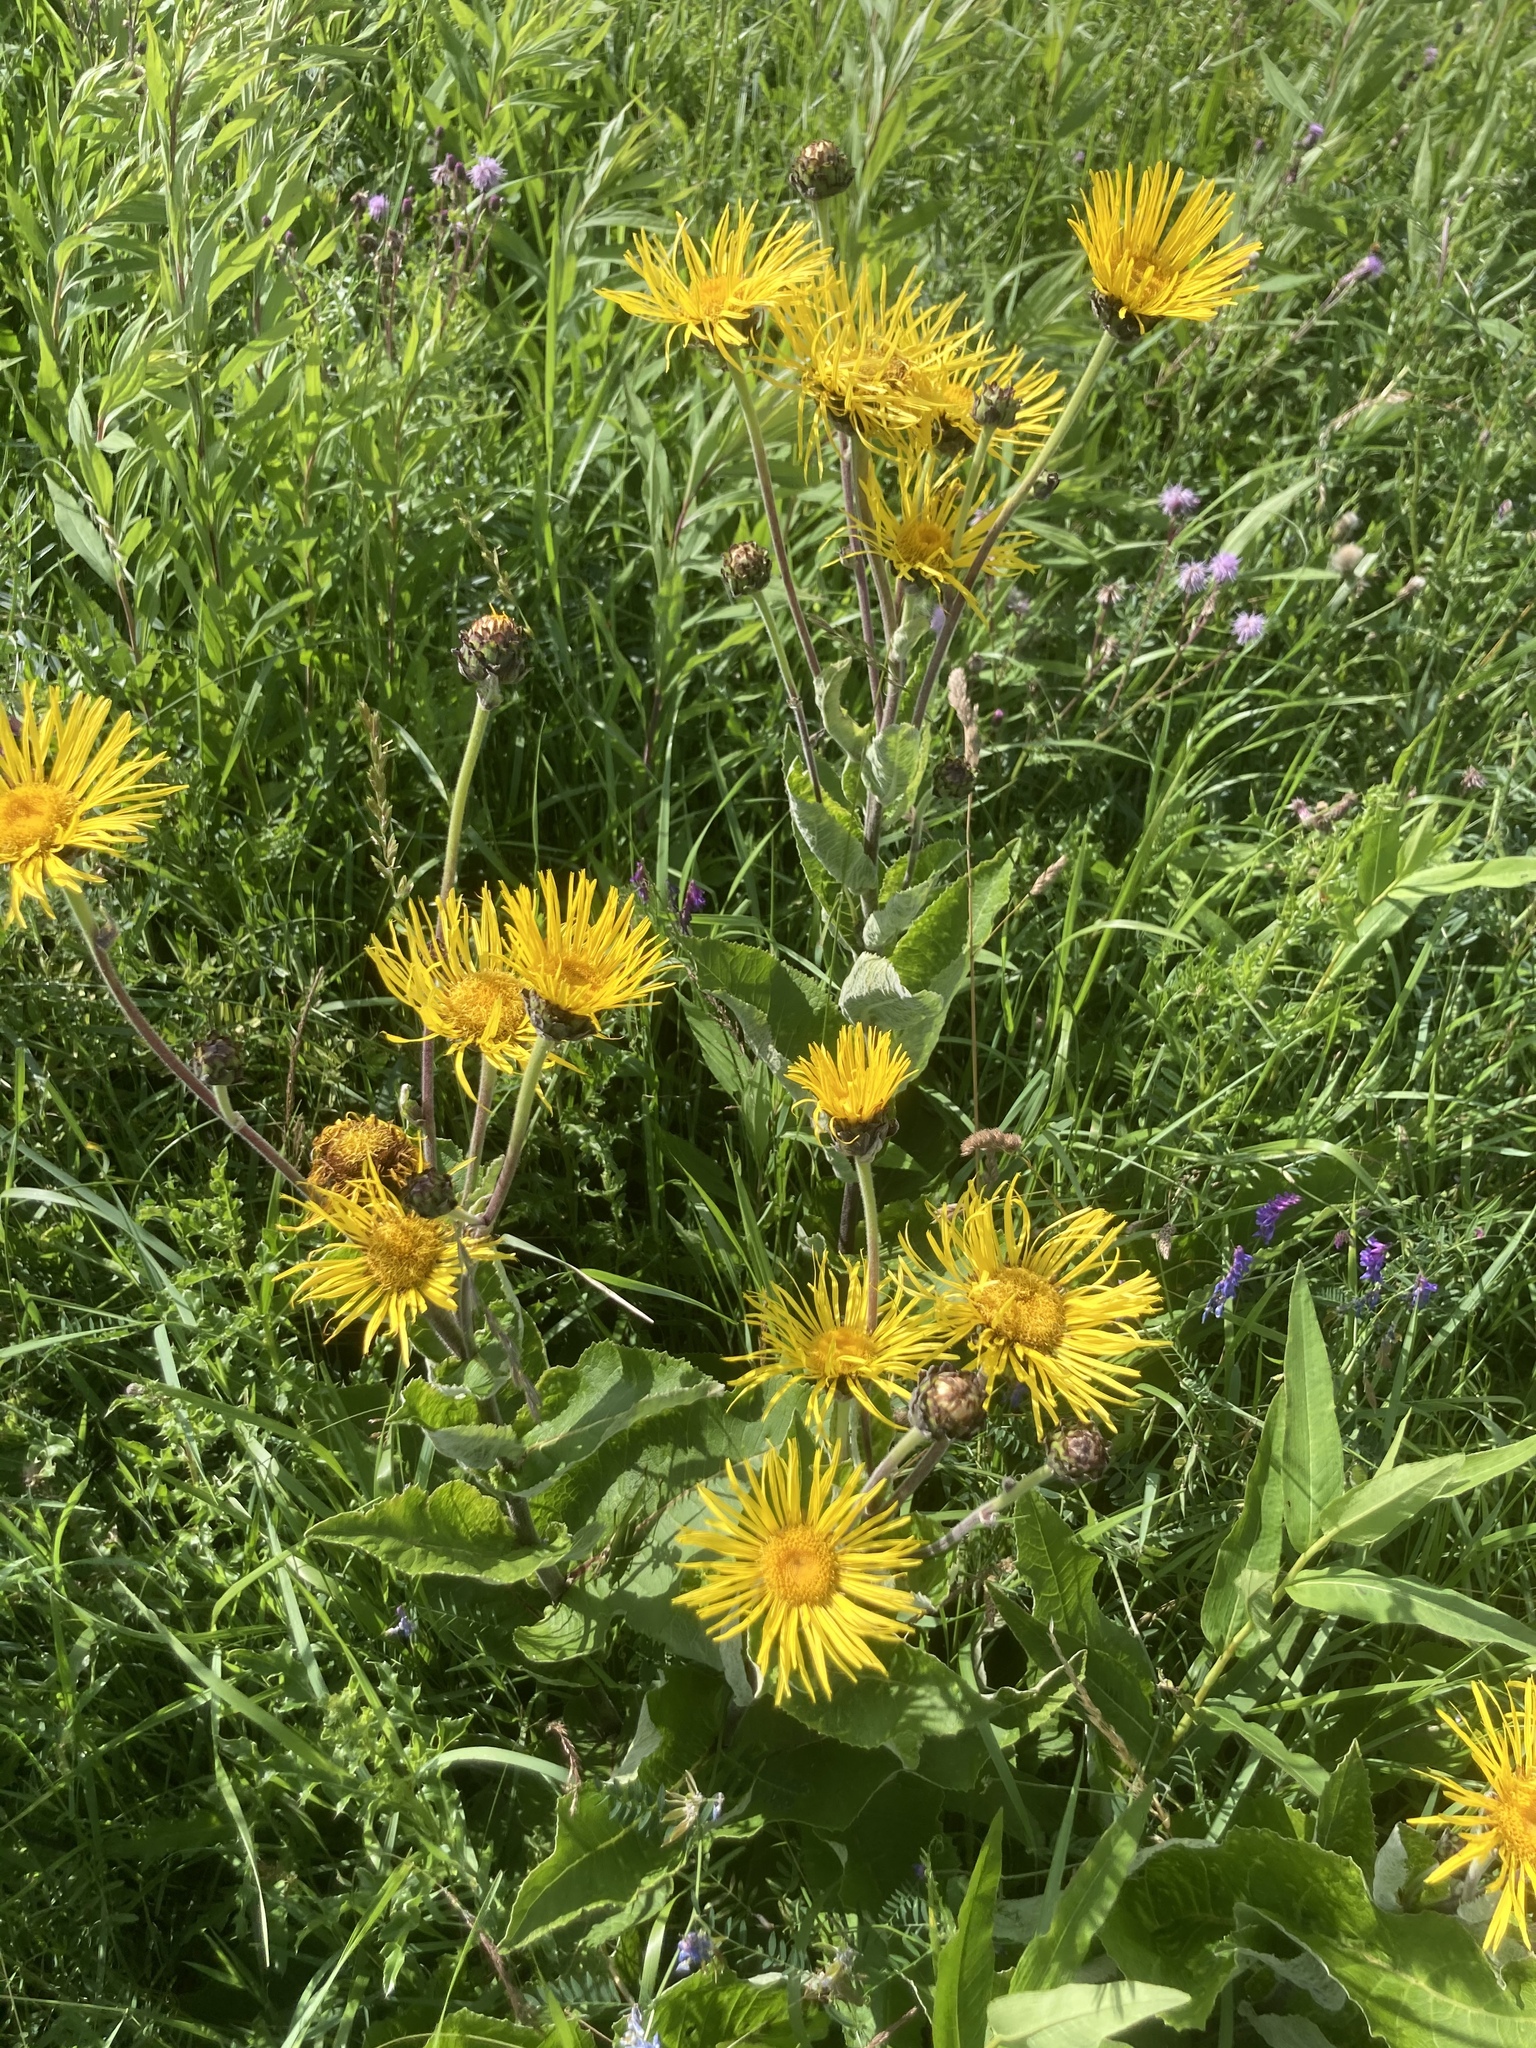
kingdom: Plantae
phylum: Tracheophyta
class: Magnoliopsida
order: Asterales
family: Asteraceae
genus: Inula
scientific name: Inula helenium
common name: Elecampane
